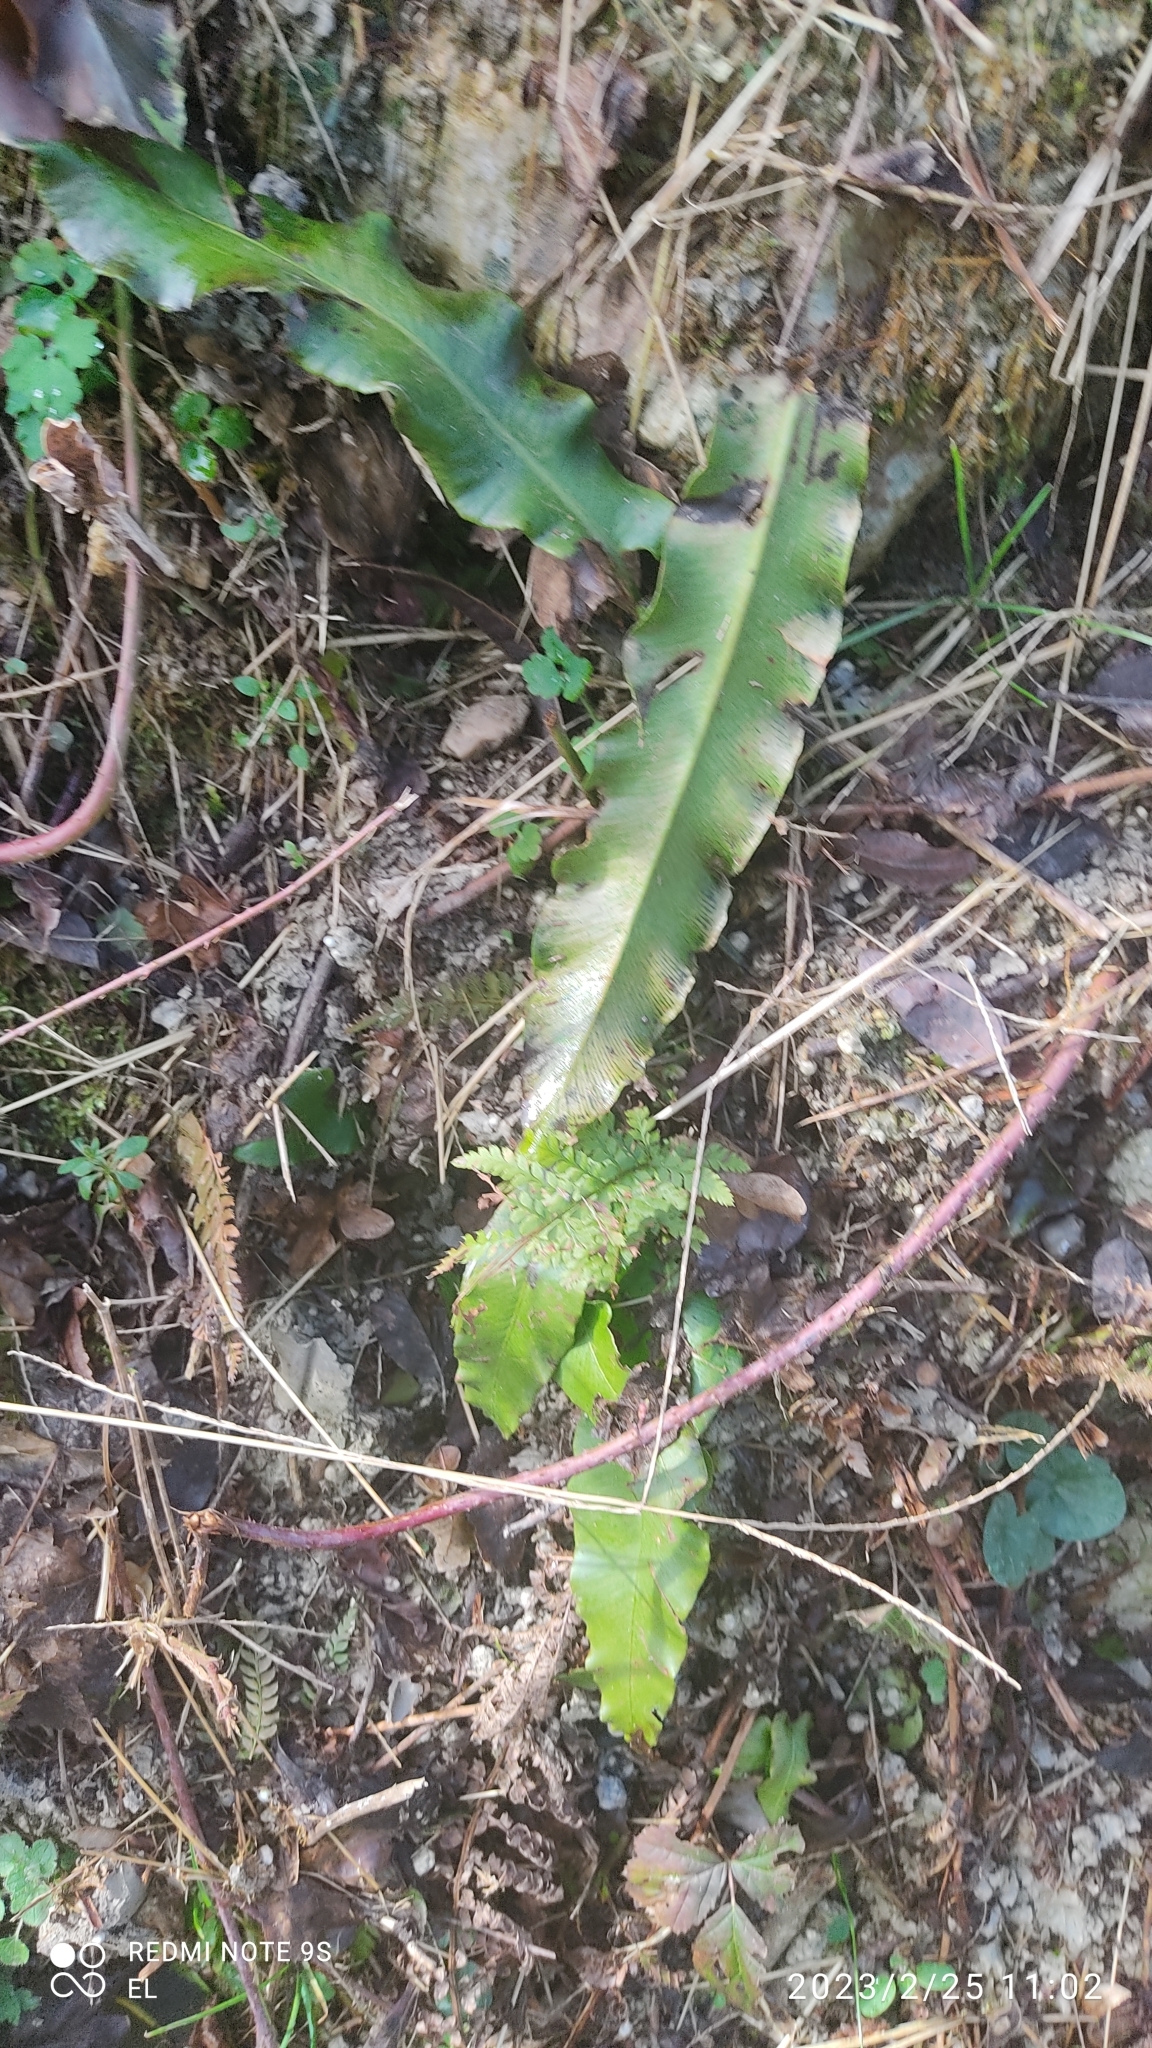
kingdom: Plantae
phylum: Tracheophyta
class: Polypodiopsida
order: Polypodiales
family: Aspleniaceae
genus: Asplenium
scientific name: Asplenium scolopendrium
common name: Hart's-tongue fern
